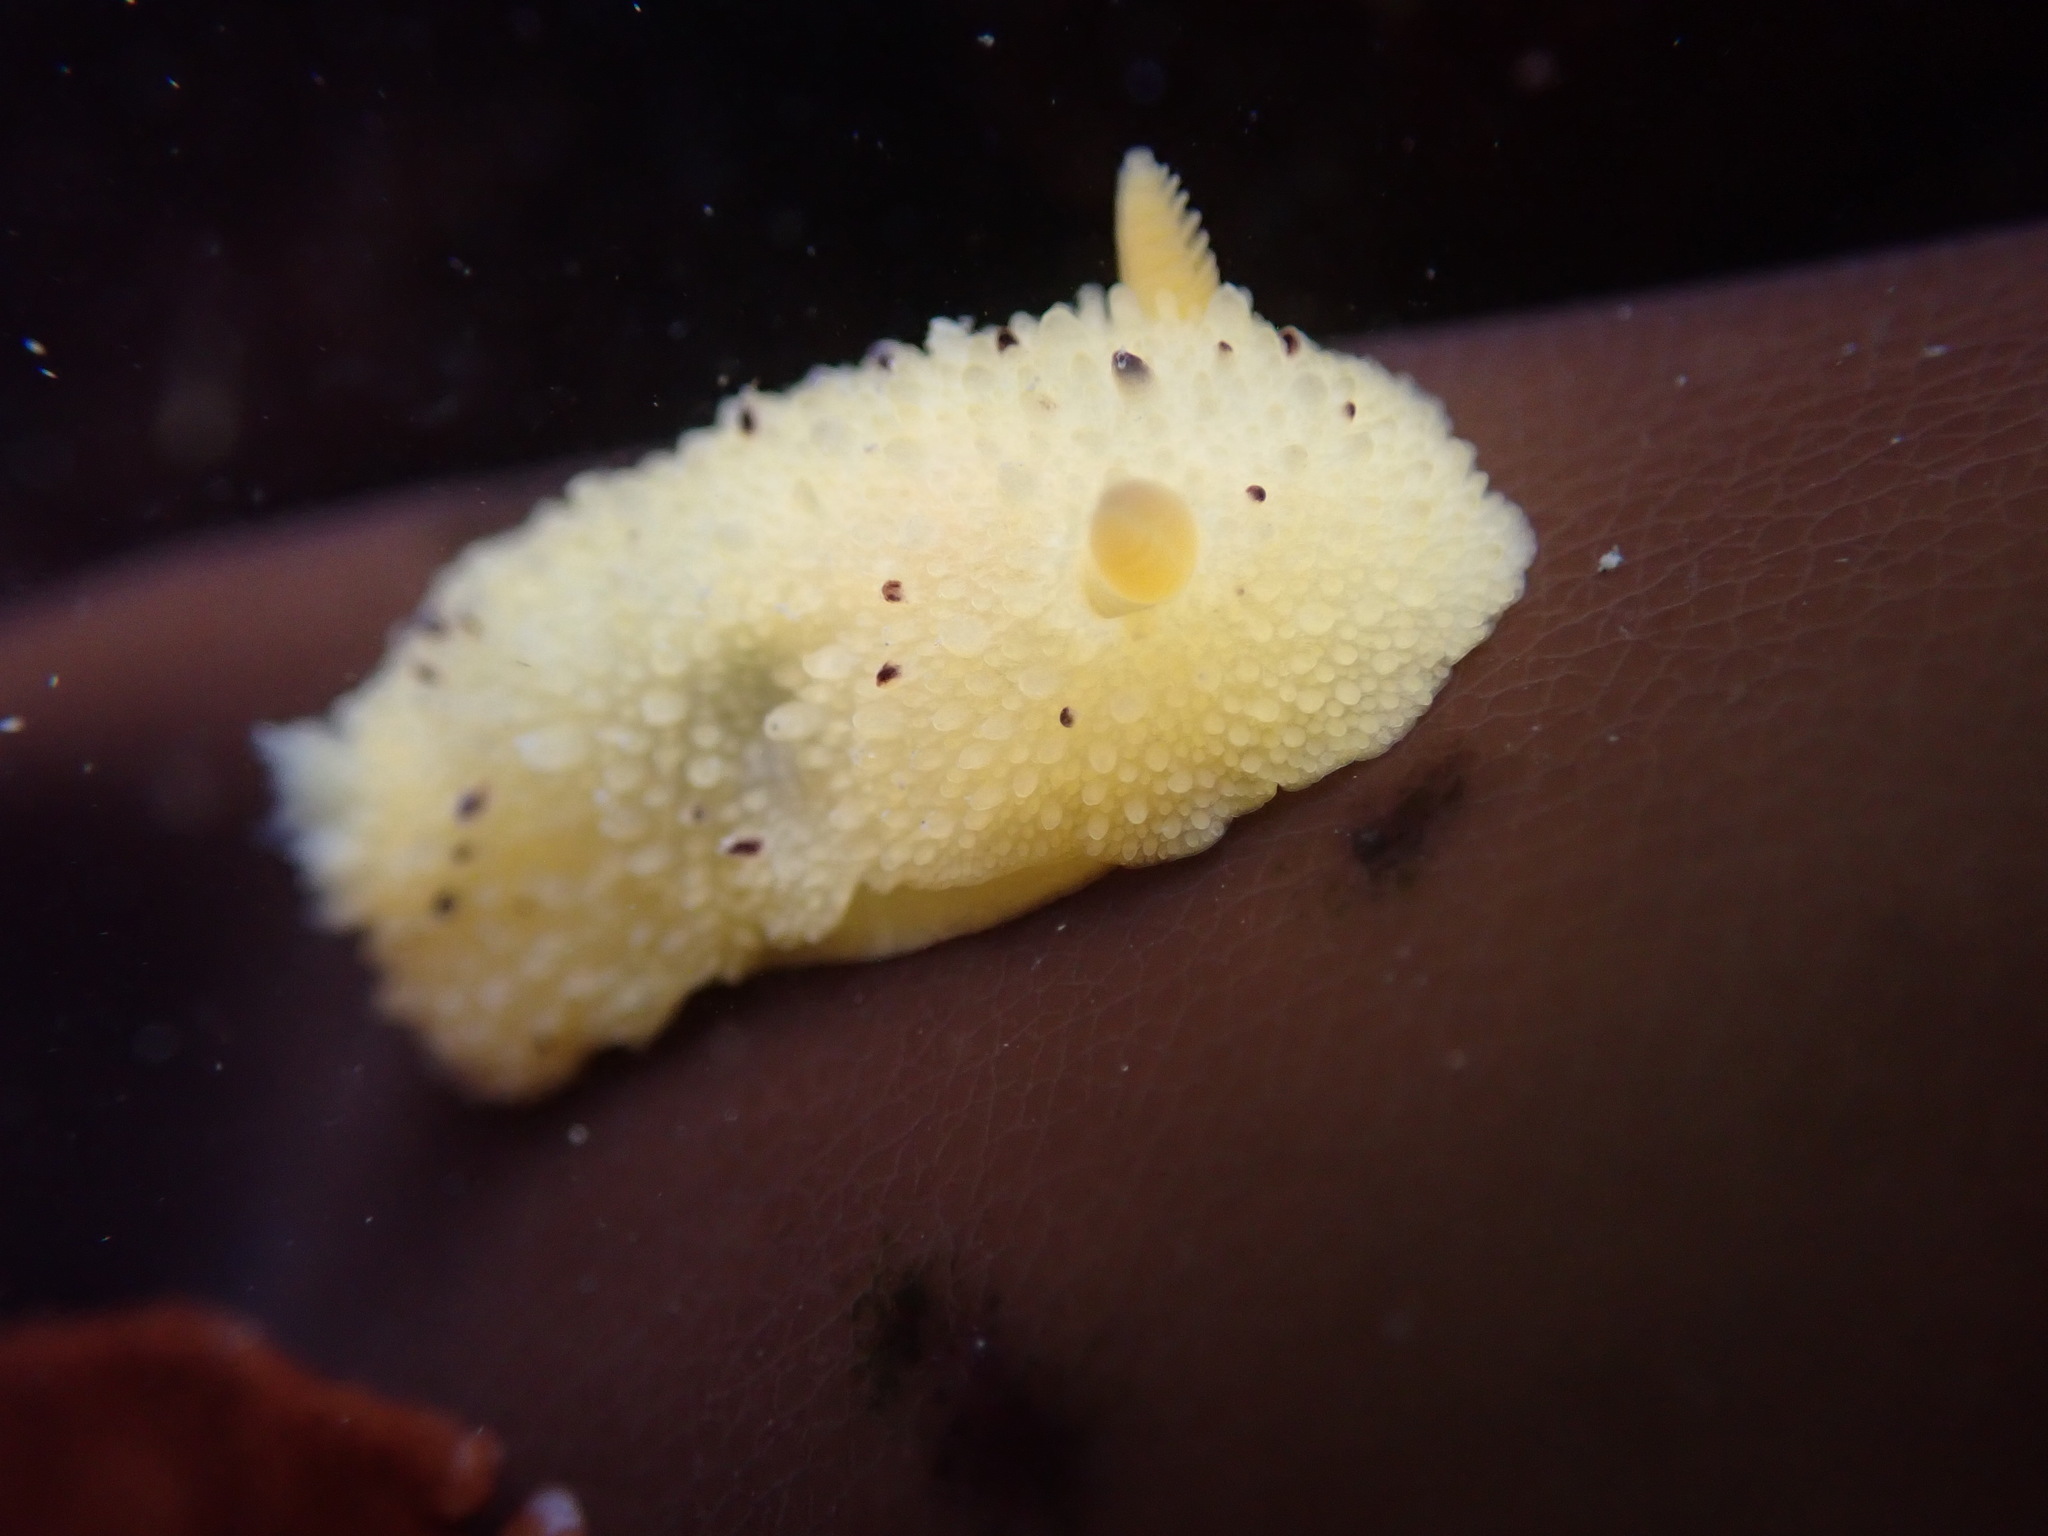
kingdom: Animalia
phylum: Mollusca
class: Gastropoda
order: Nudibranchia
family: Dorididae
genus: Doris
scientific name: Doris montereyensis
